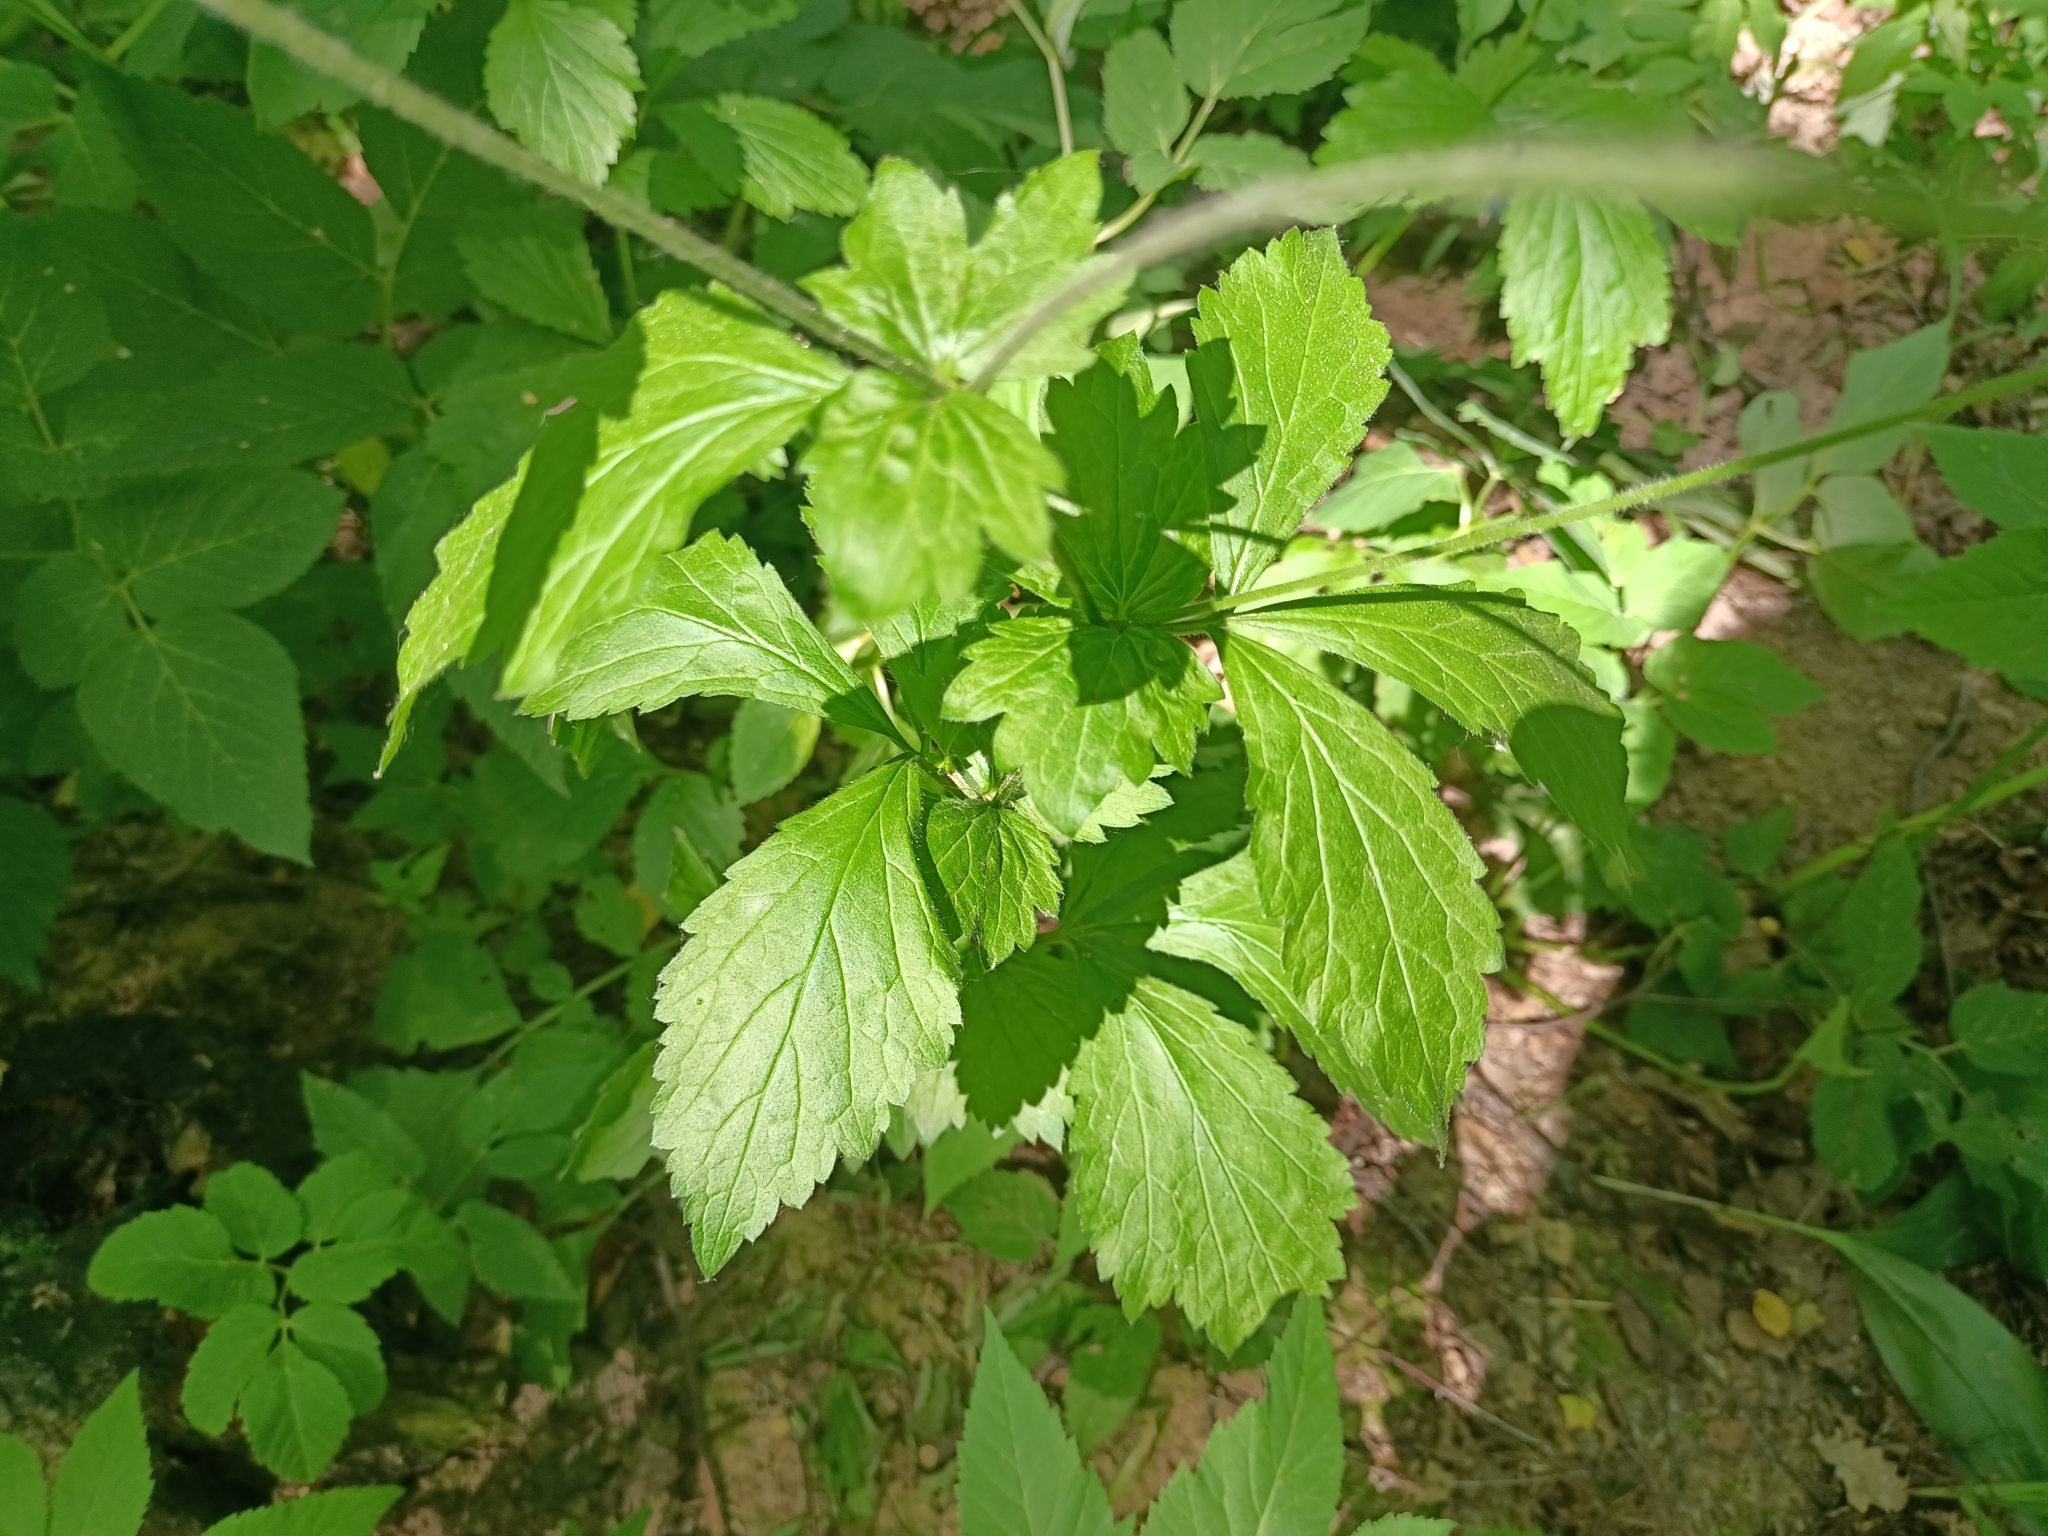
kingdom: Plantae
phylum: Tracheophyta
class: Magnoliopsida
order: Rosales
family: Rosaceae
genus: Geum
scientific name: Geum urbanum
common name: Wood avens
